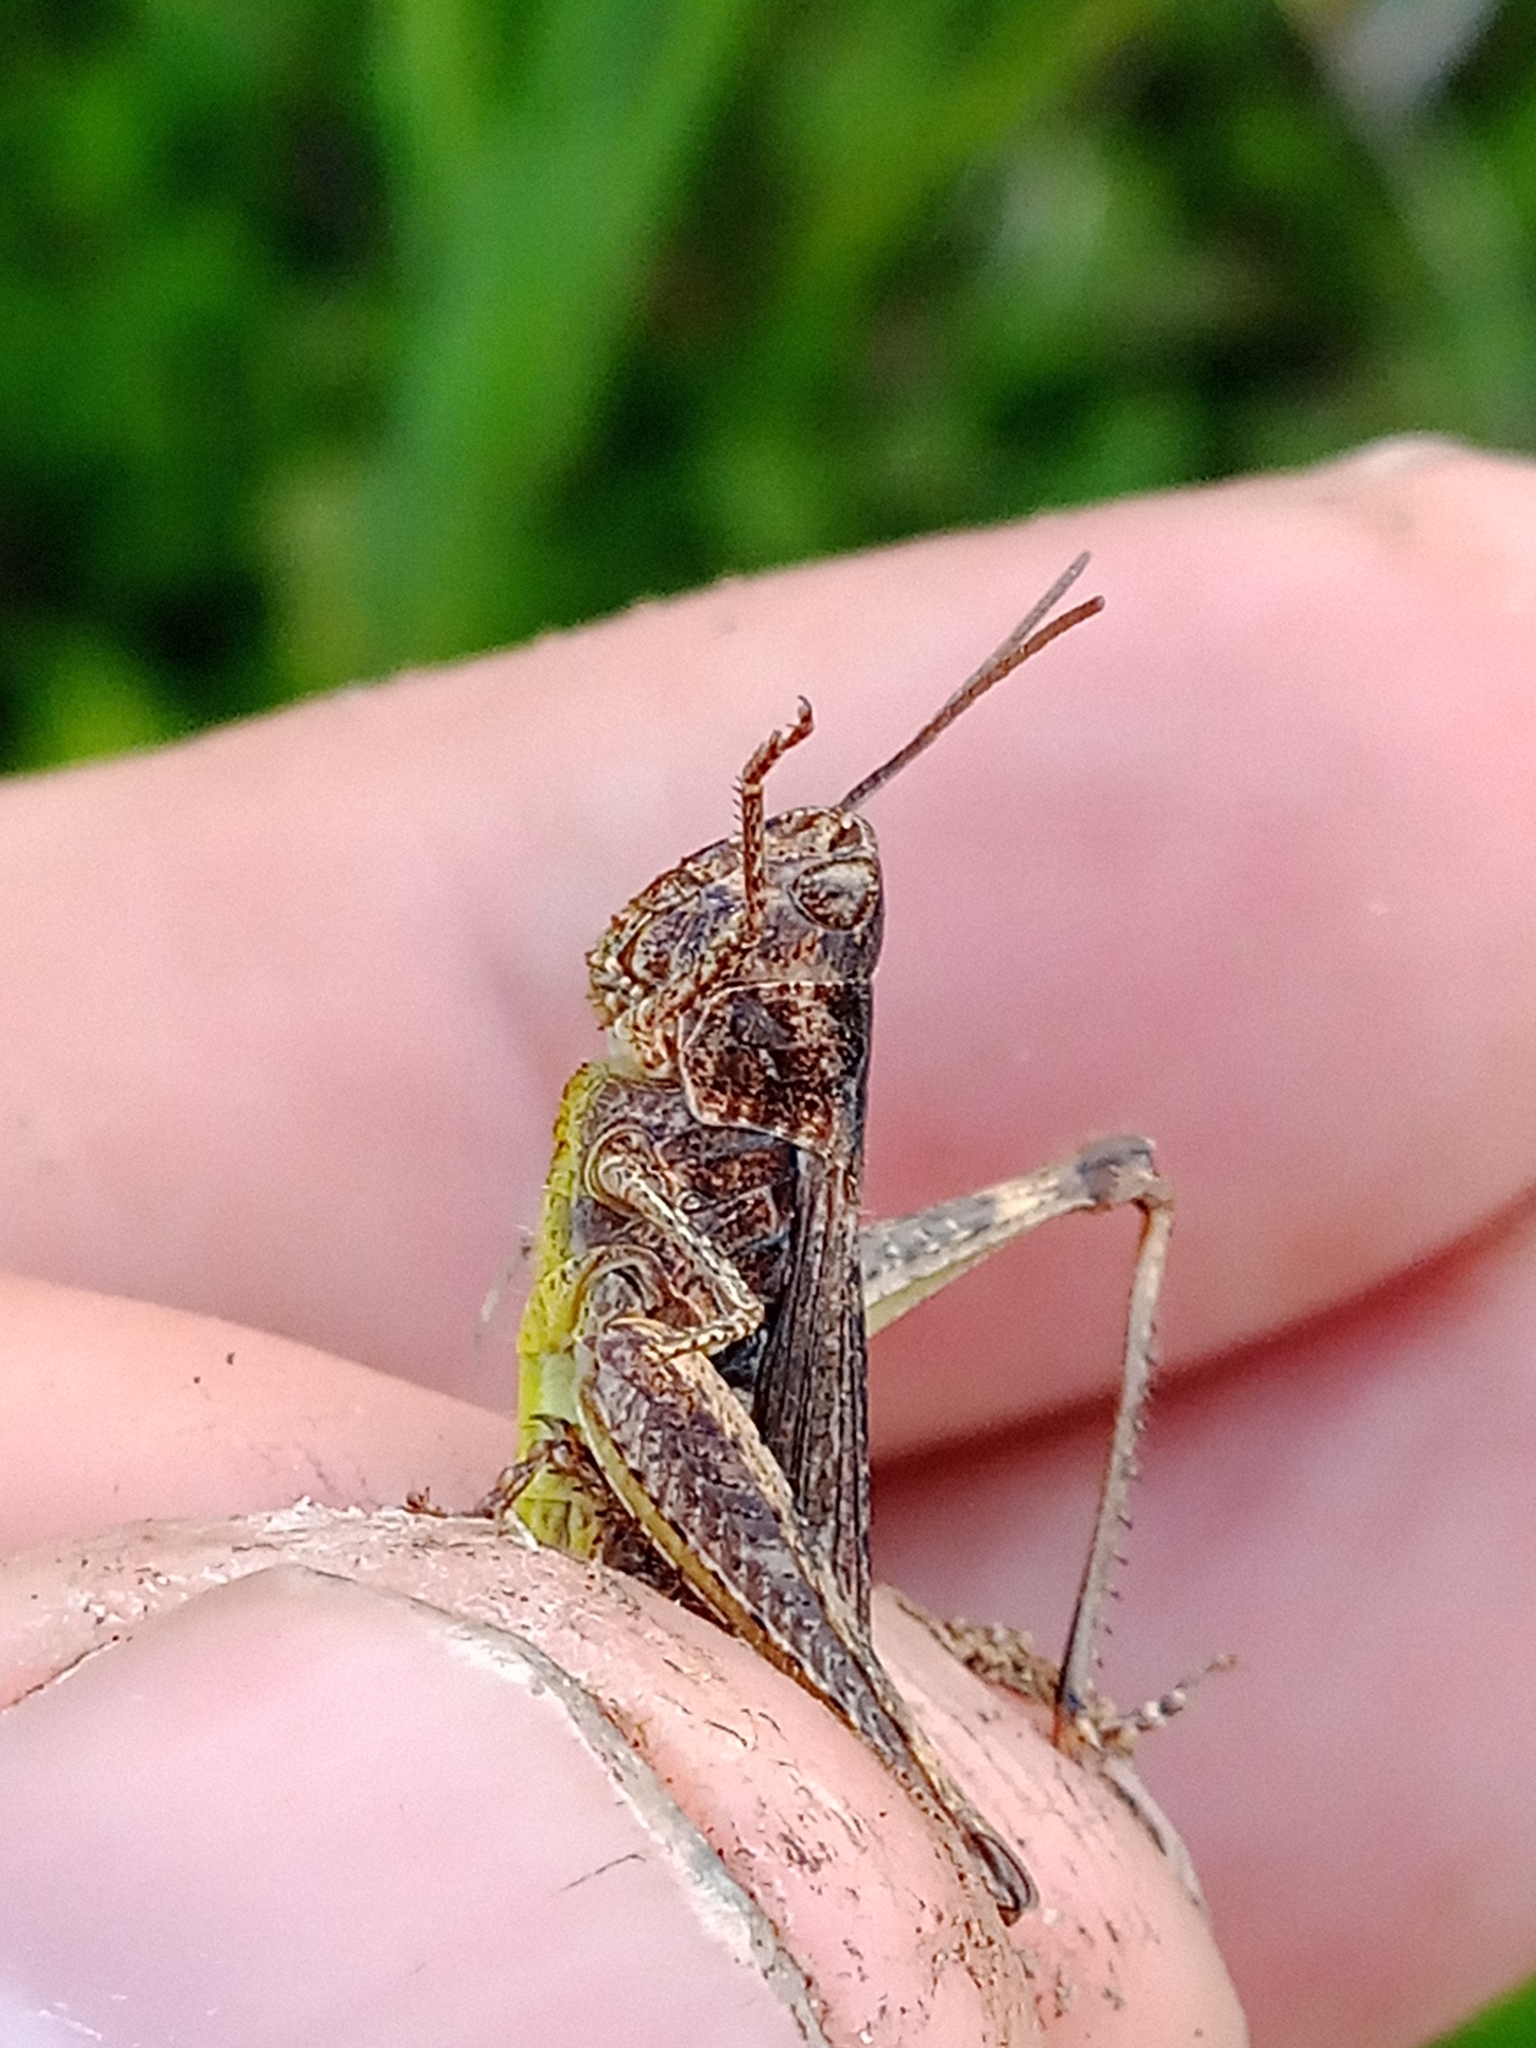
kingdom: Animalia
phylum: Arthropoda
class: Insecta
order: Orthoptera
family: Acrididae
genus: Chorthippus
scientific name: Chorthippus brunneus
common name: Field grasshopper
